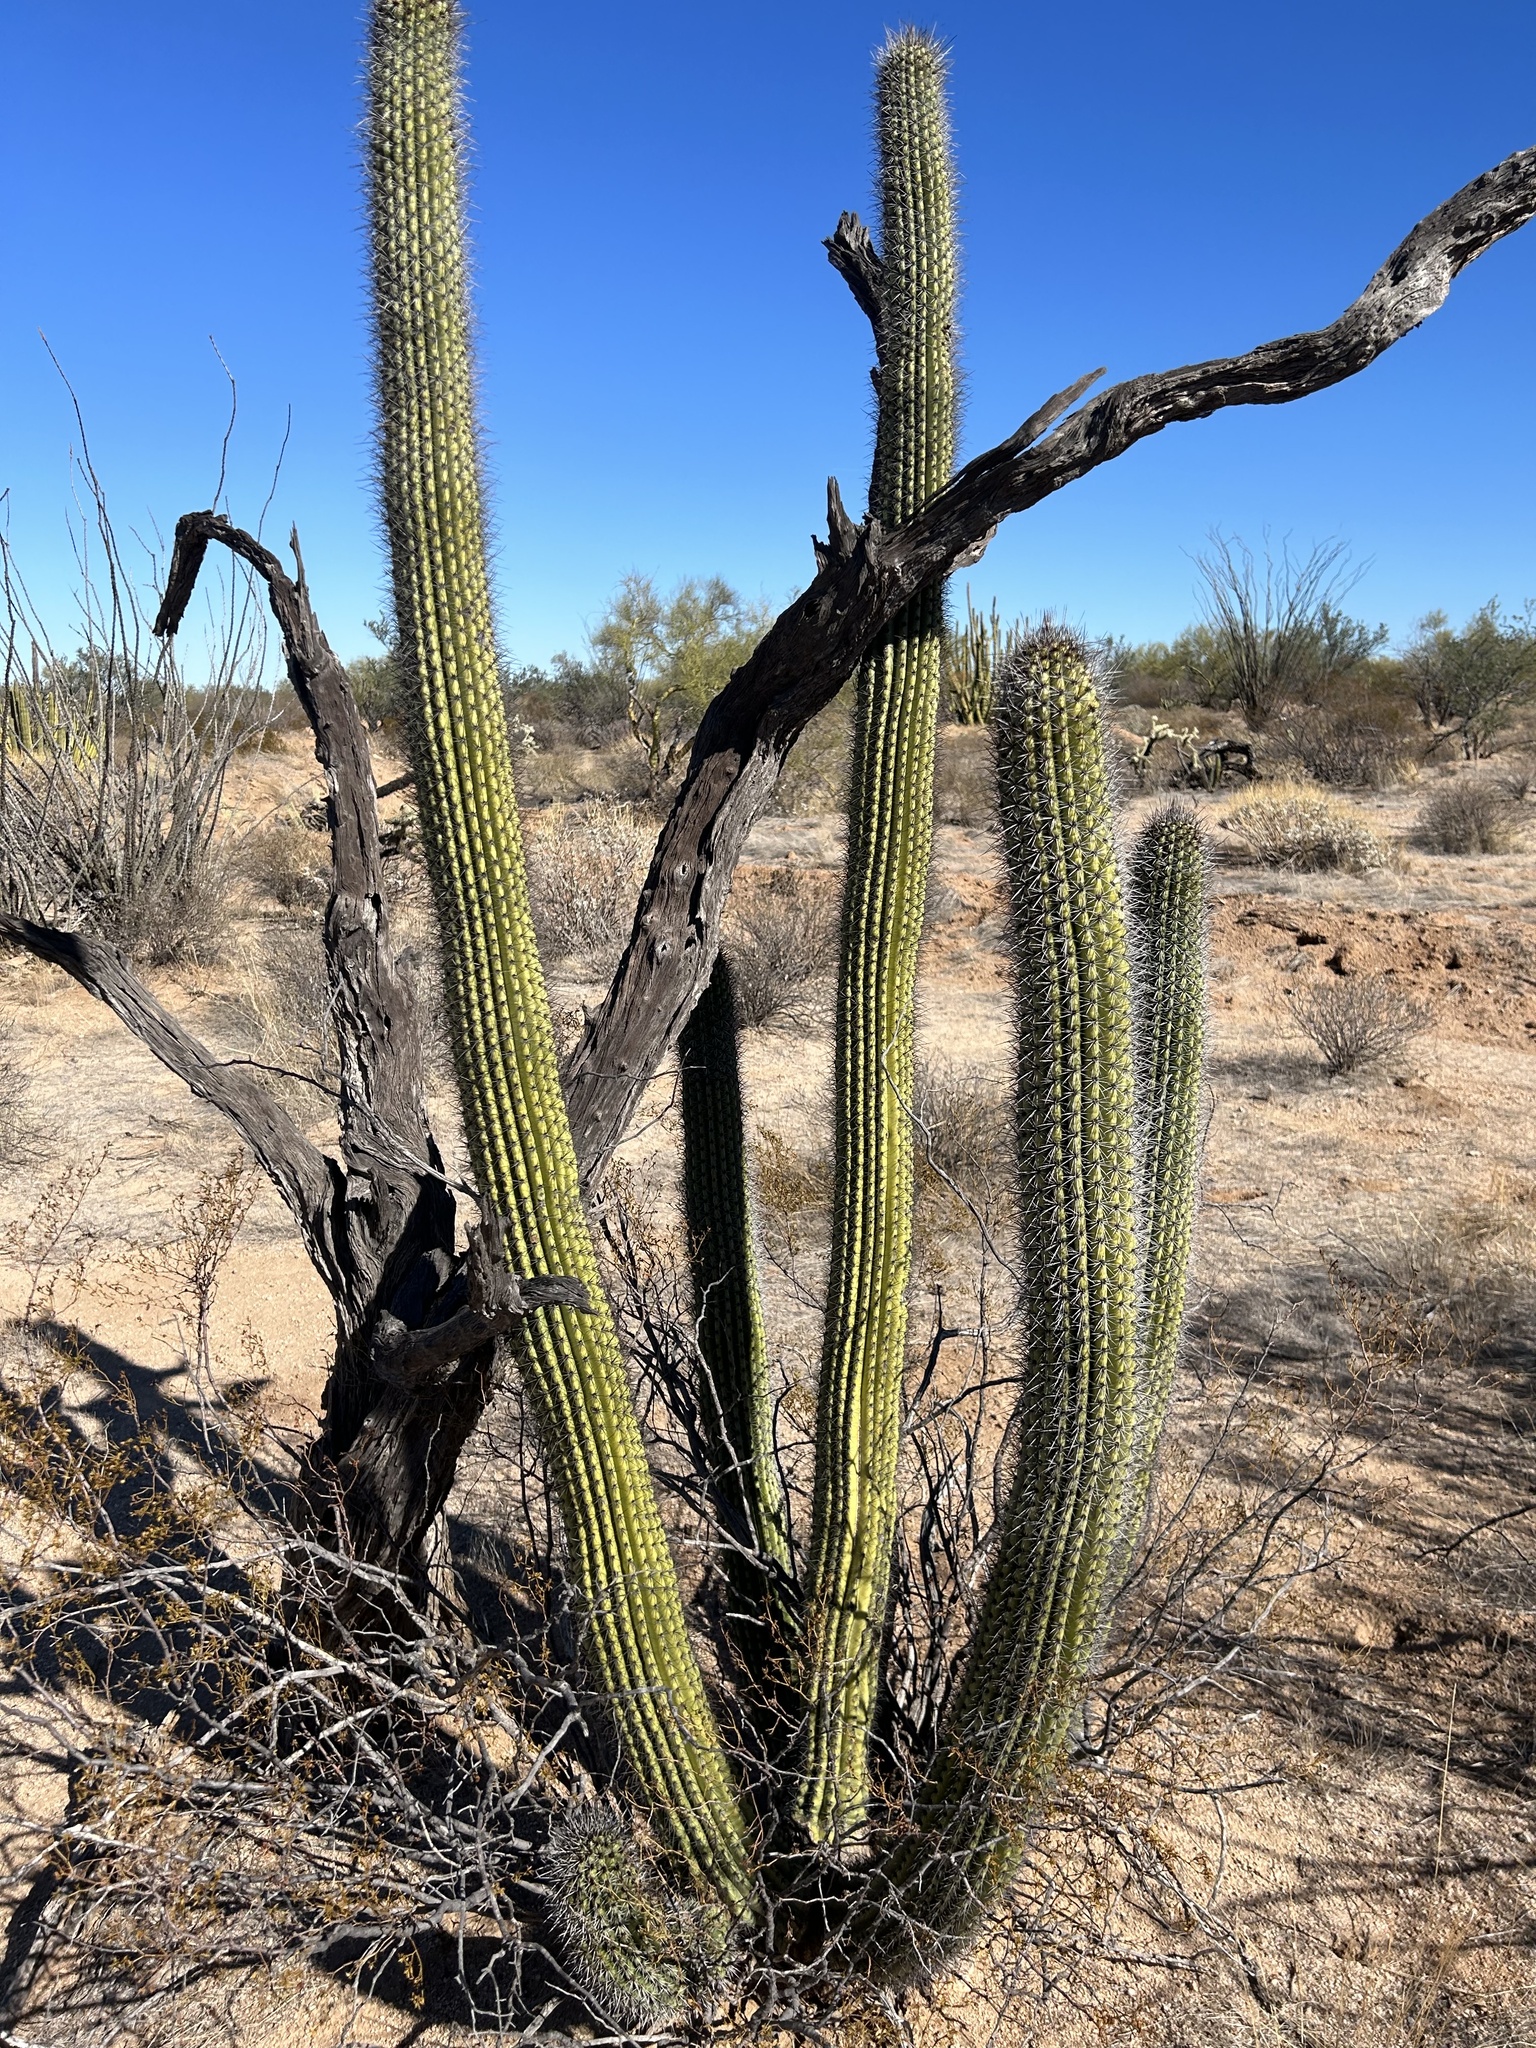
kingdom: Plantae
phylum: Tracheophyta
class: Magnoliopsida
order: Caryophyllales
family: Cactaceae
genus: Stenocereus
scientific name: Stenocereus thurberi
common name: Organ pipe cactus
